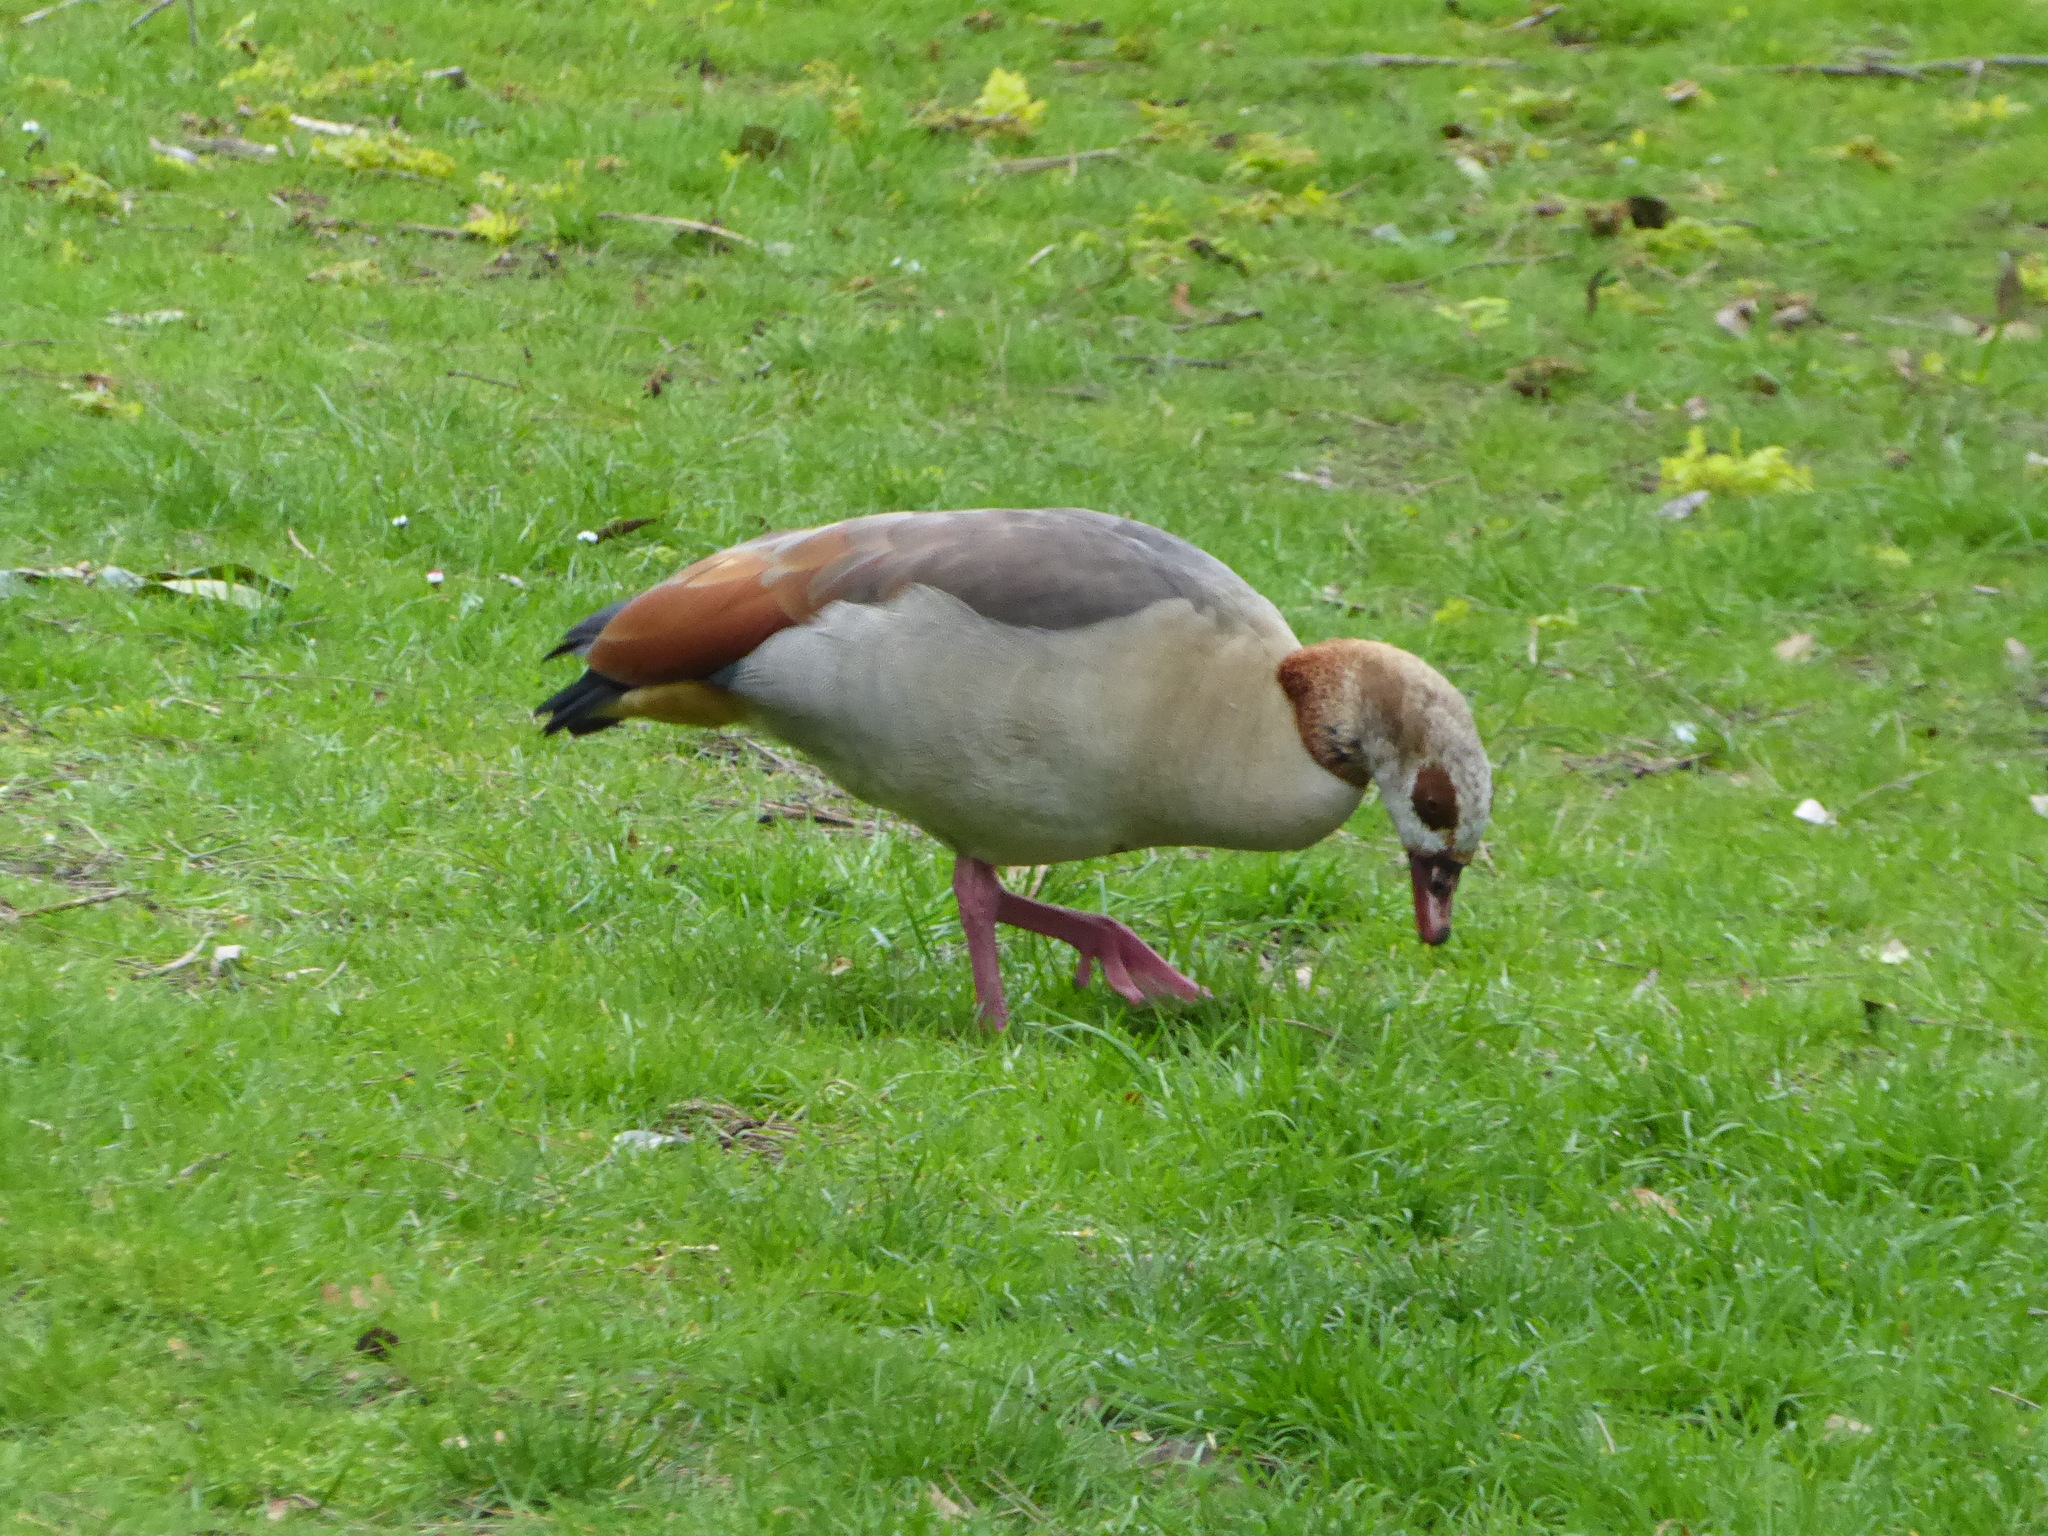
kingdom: Animalia
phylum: Chordata
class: Aves
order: Anseriformes
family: Anatidae
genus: Alopochen
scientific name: Alopochen aegyptiaca
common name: Egyptian goose
